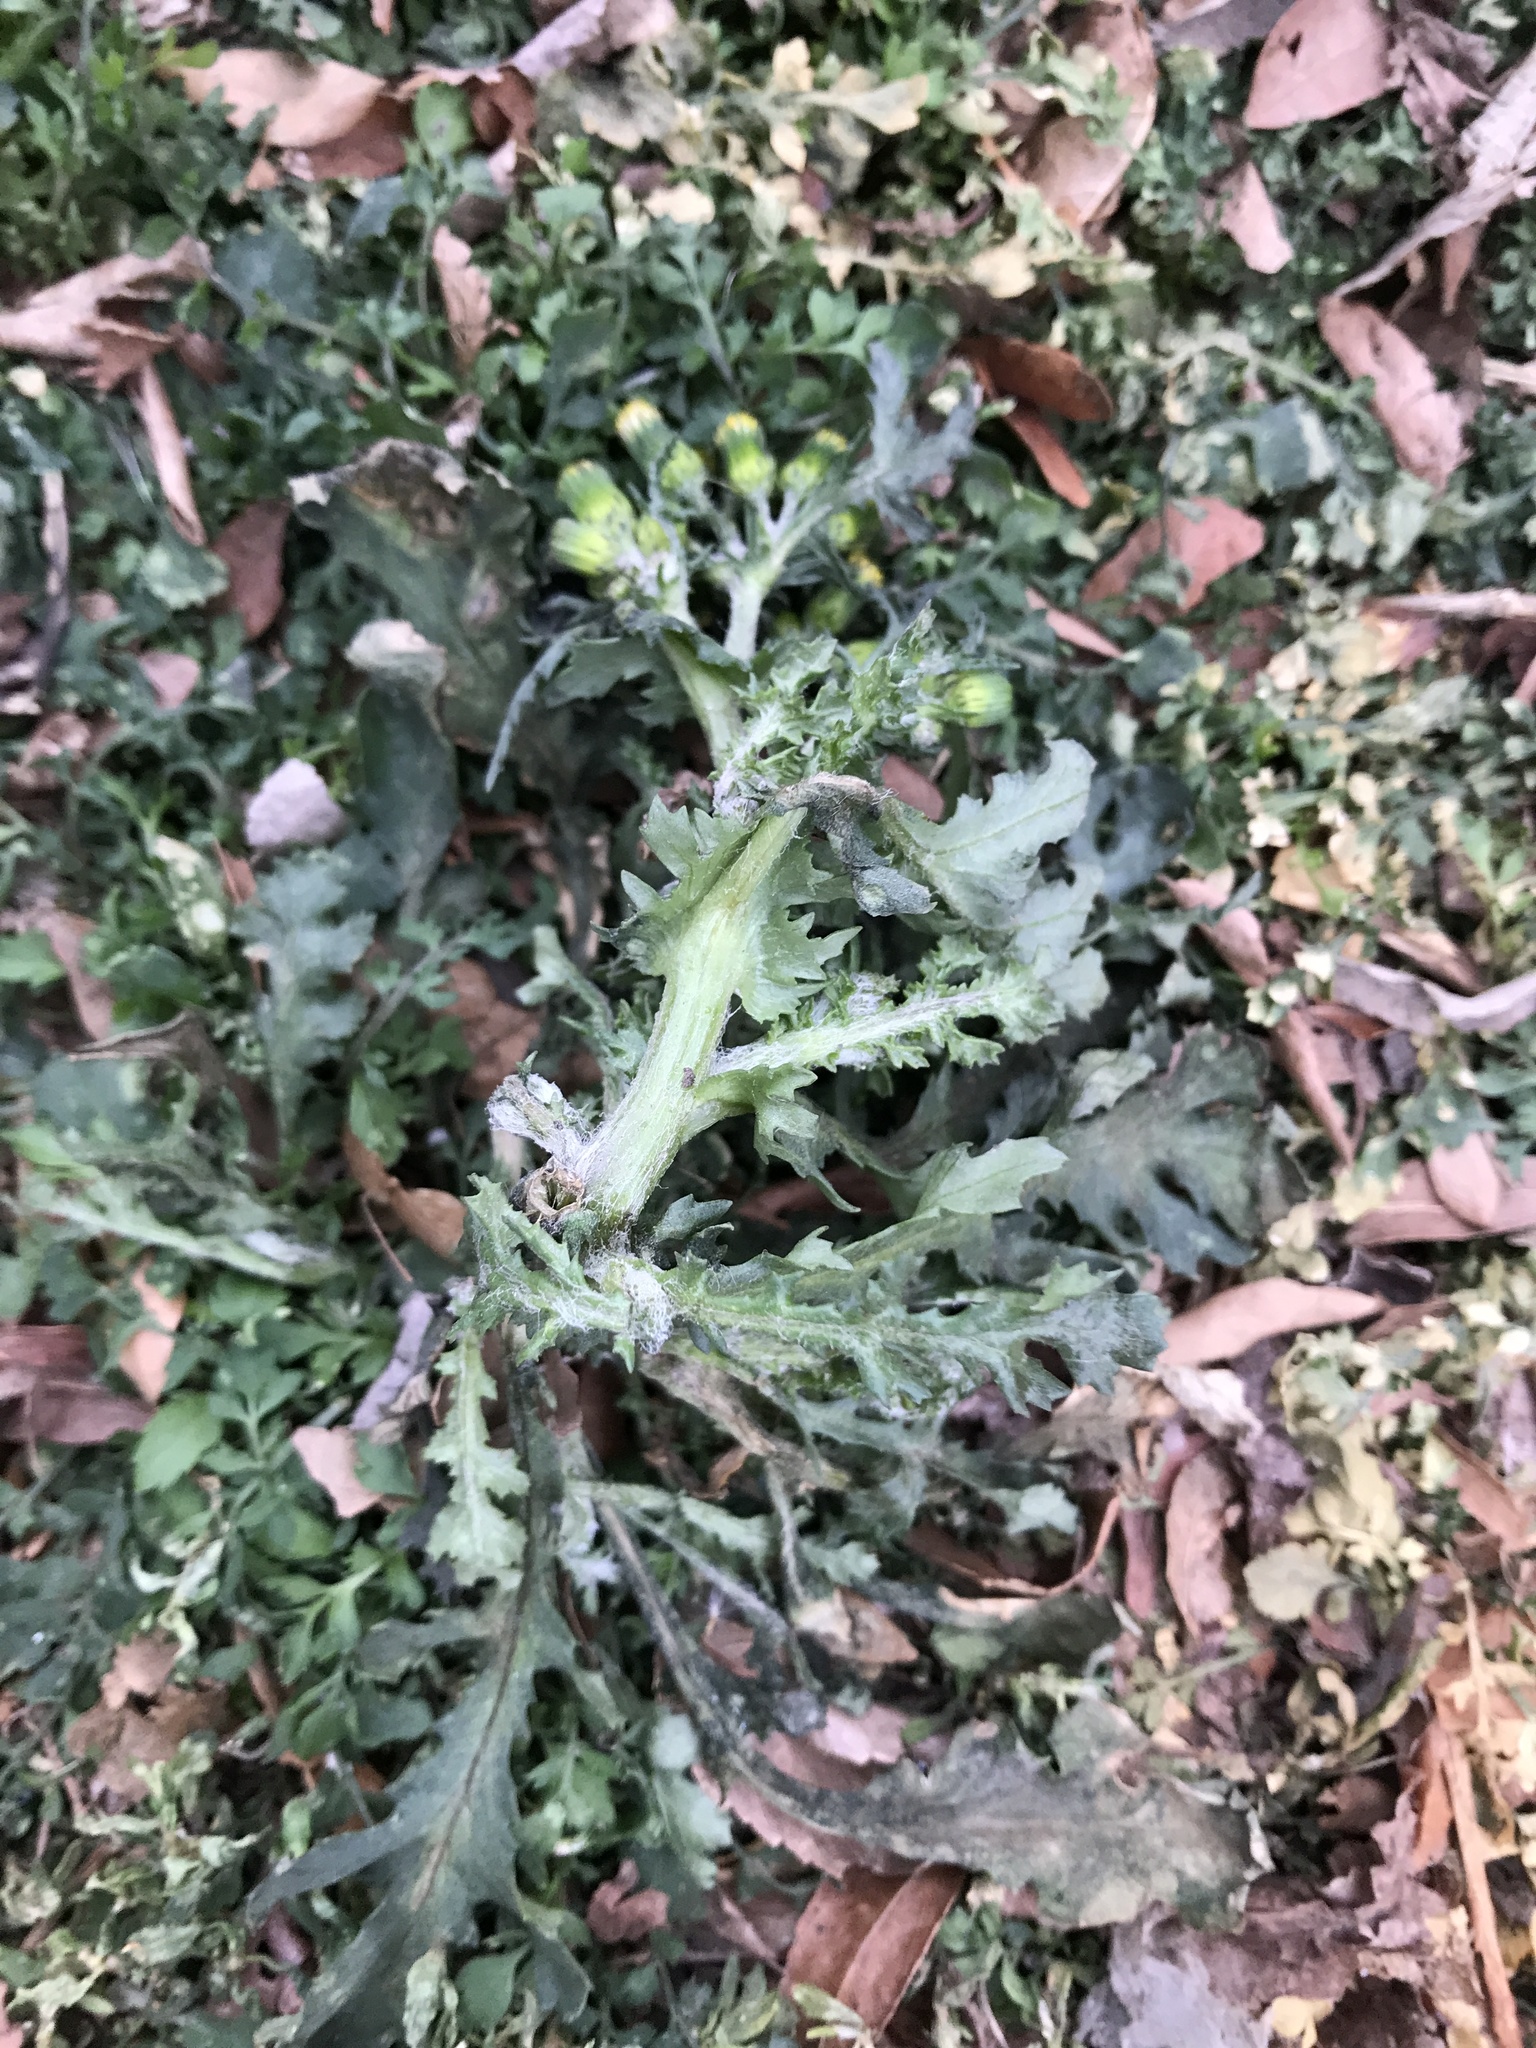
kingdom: Plantae
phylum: Tracheophyta
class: Magnoliopsida
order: Asterales
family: Asteraceae
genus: Senecio
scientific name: Senecio vulgaris
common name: Old-man-in-the-spring
